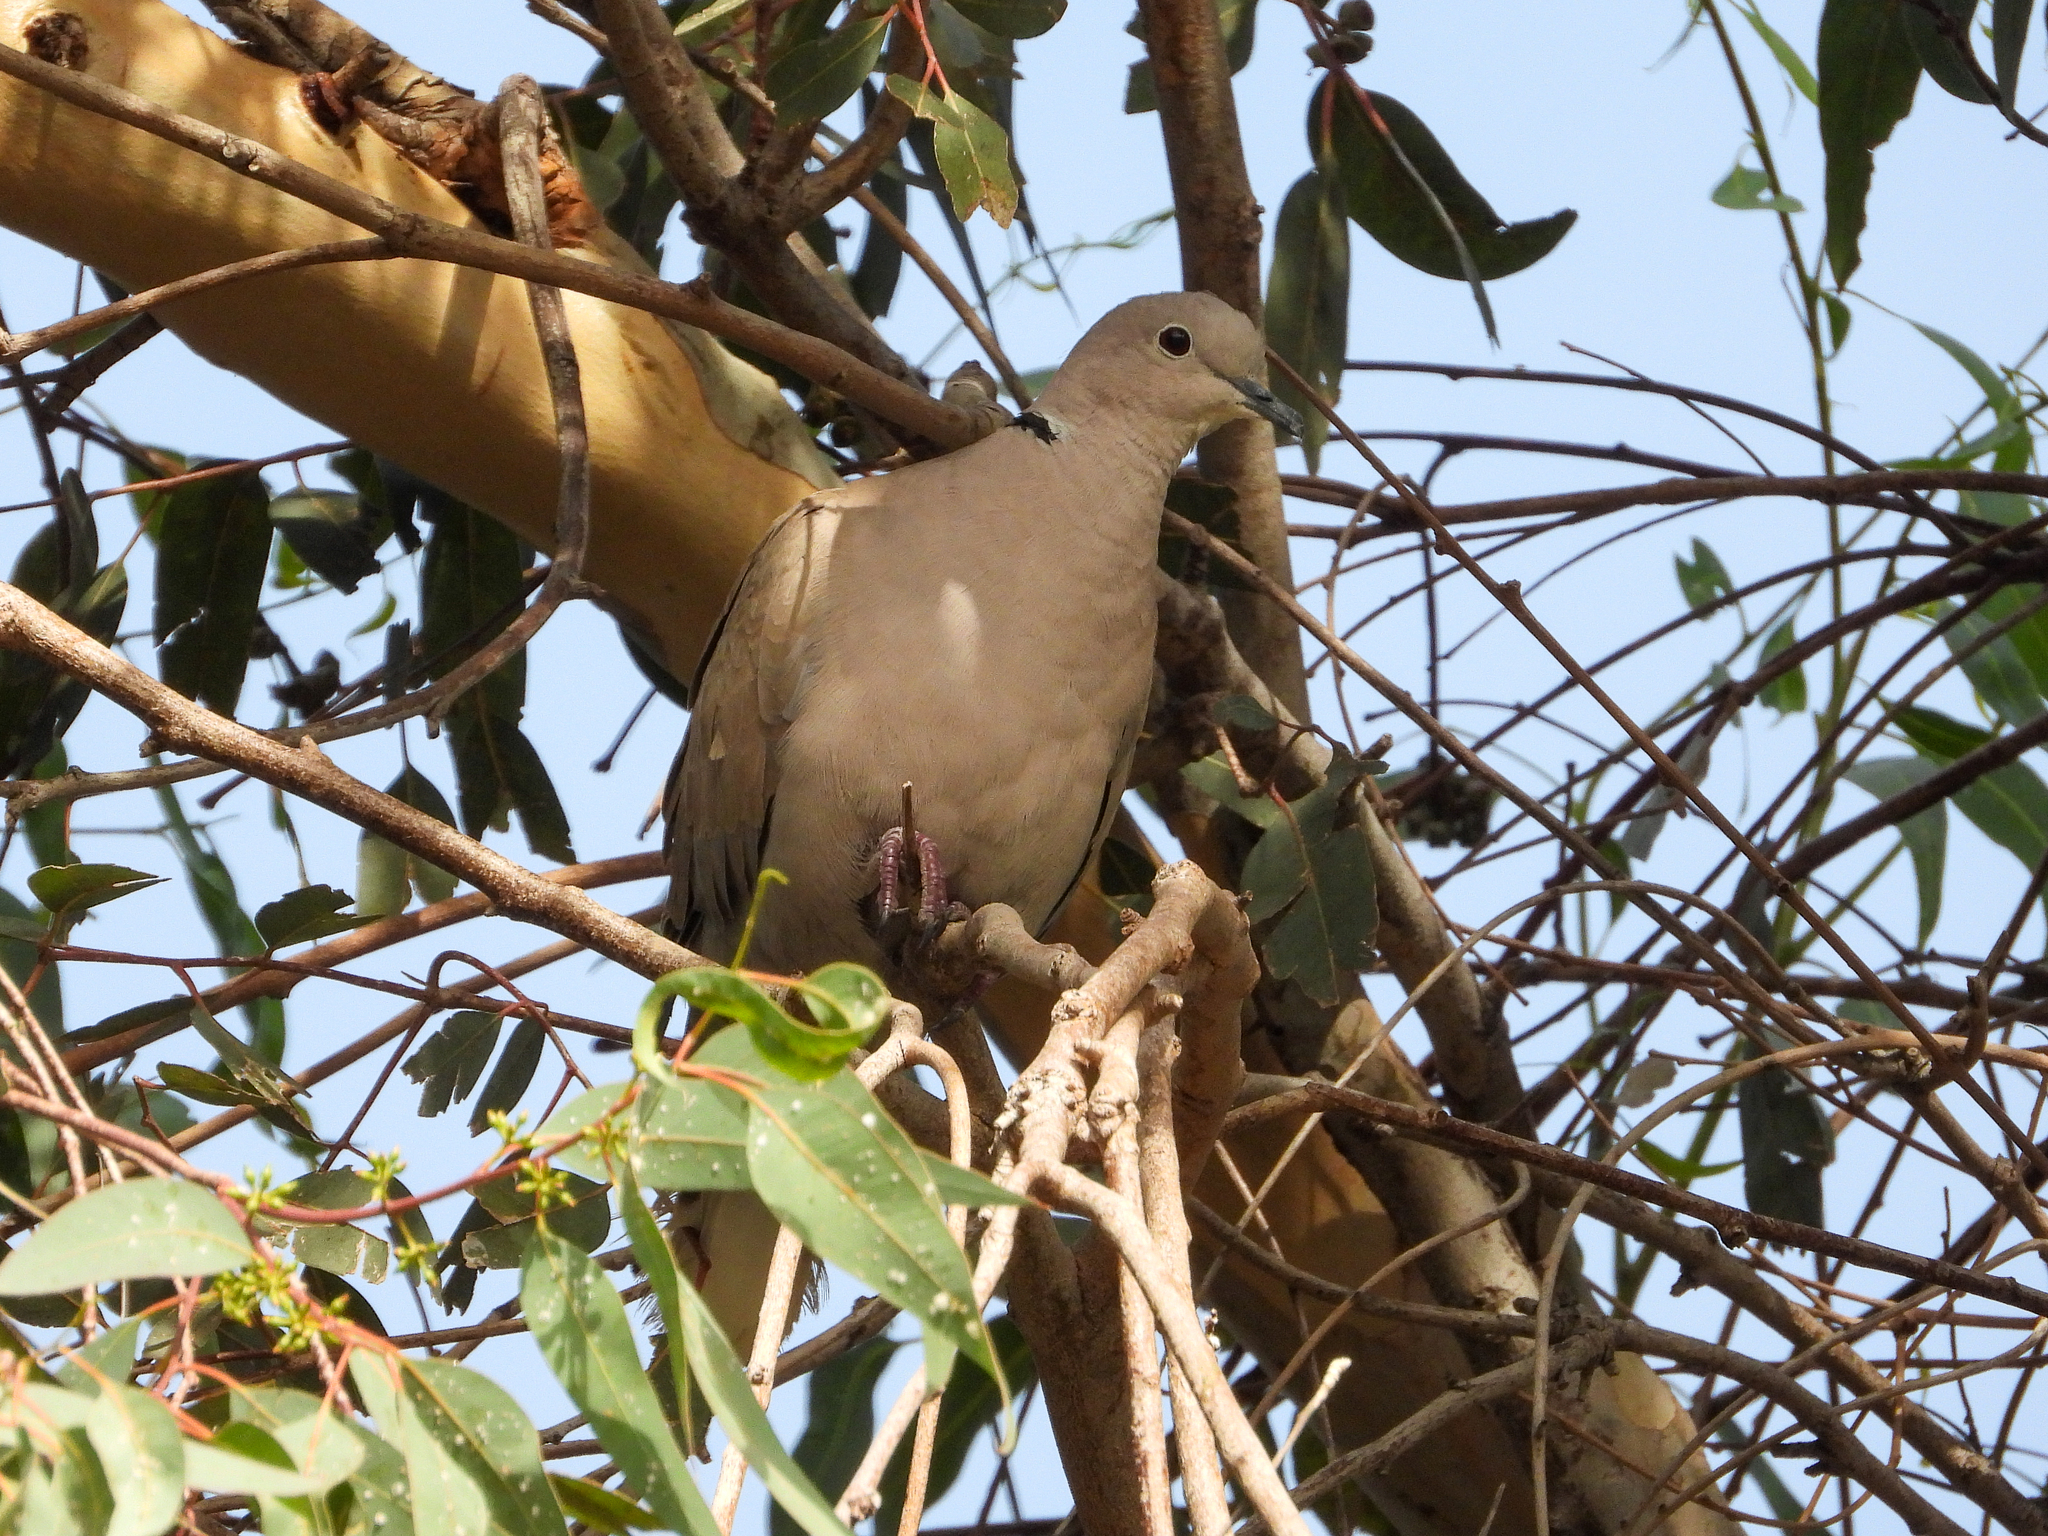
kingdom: Animalia
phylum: Chordata
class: Aves
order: Columbiformes
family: Columbidae
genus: Streptopelia
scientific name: Streptopelia decaocto
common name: Eurasian collared dove
